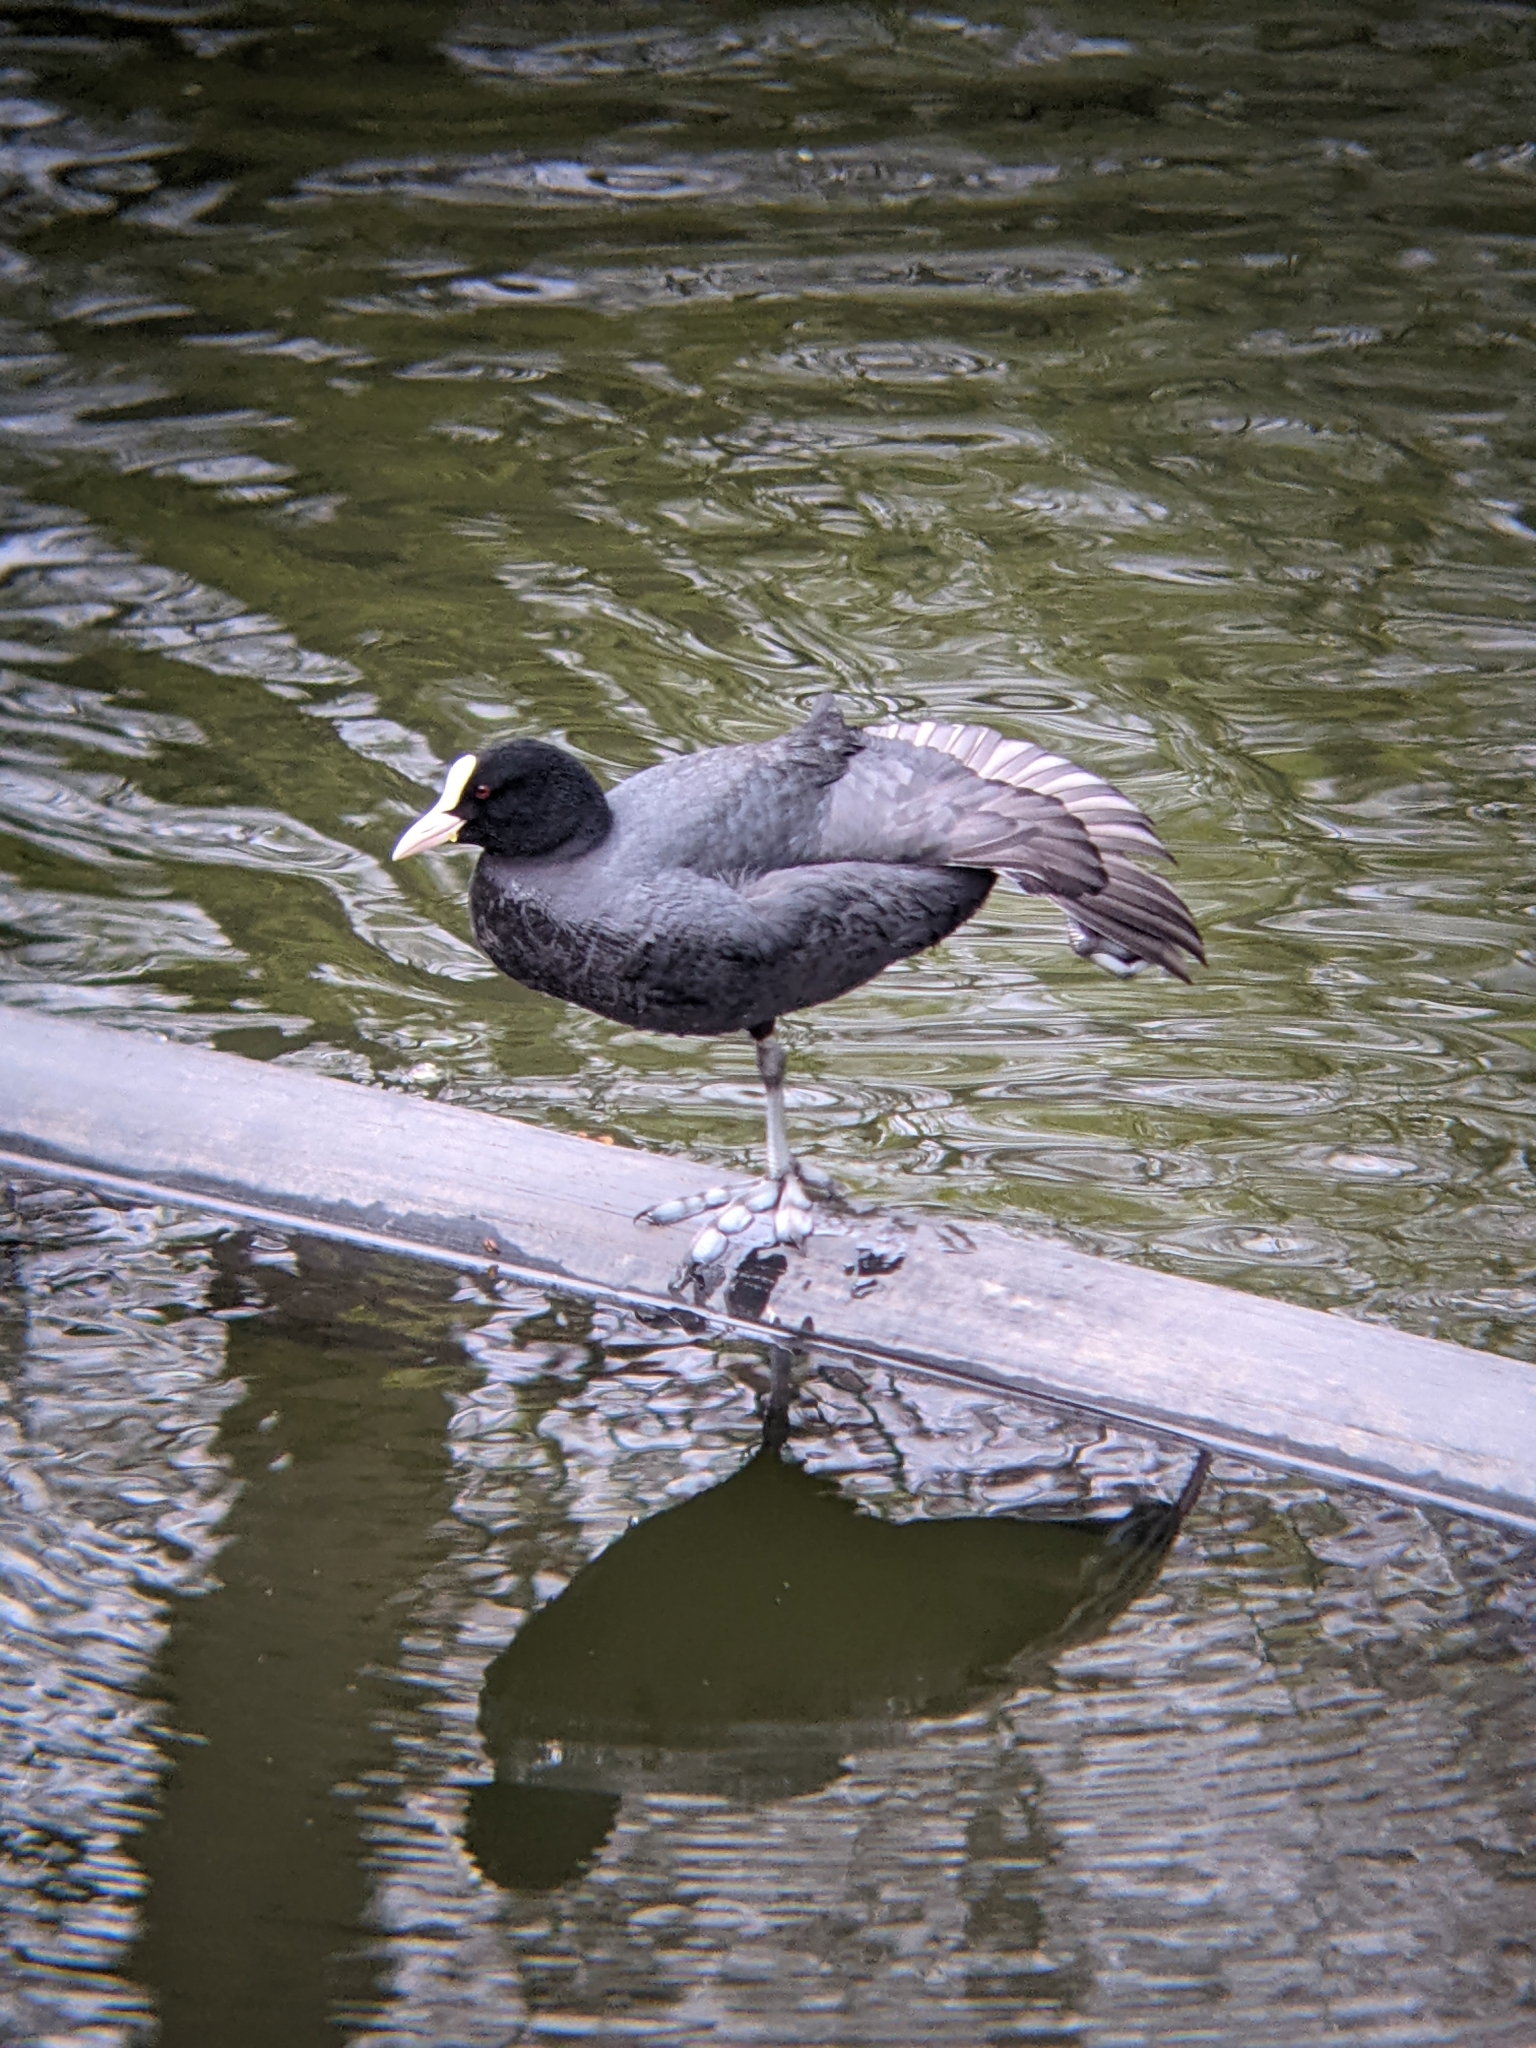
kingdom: Animalia
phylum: Chordata
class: Aves
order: Gruiformes
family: Rallidae
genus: Fulica
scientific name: Fulica atra
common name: Eurasian coot
